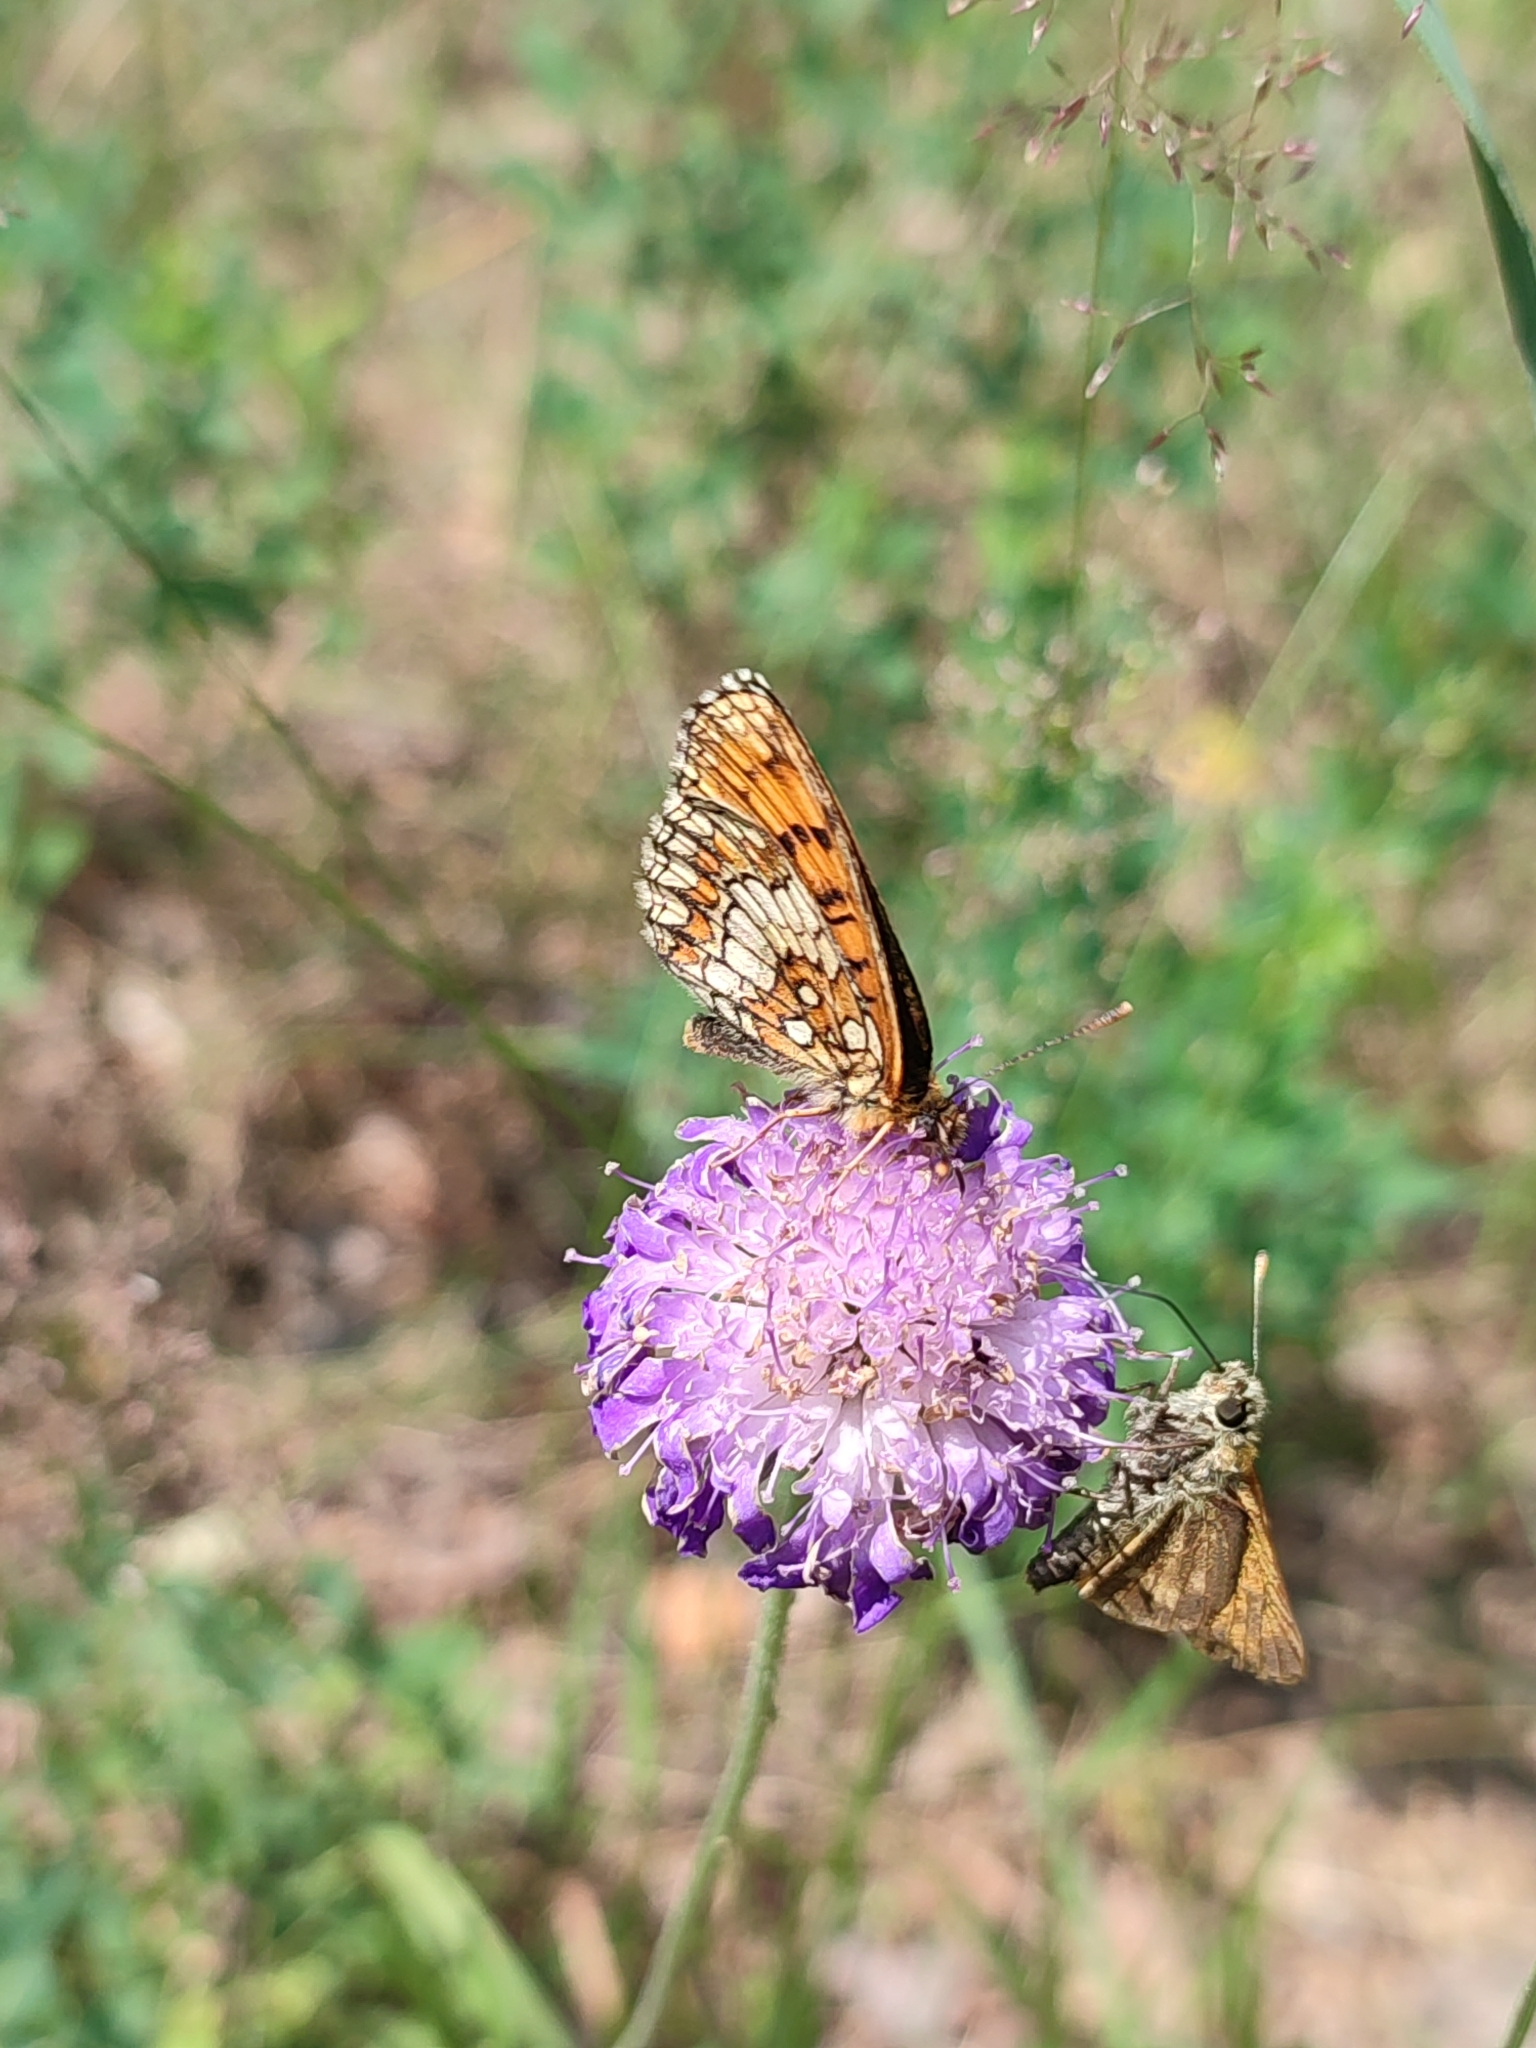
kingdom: Animalia
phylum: Arthropoda
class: Insecta
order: Lepidoptera
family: Nymphalidae
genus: Melitaea
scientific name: Melitaea athalia
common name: Heath fritillary
